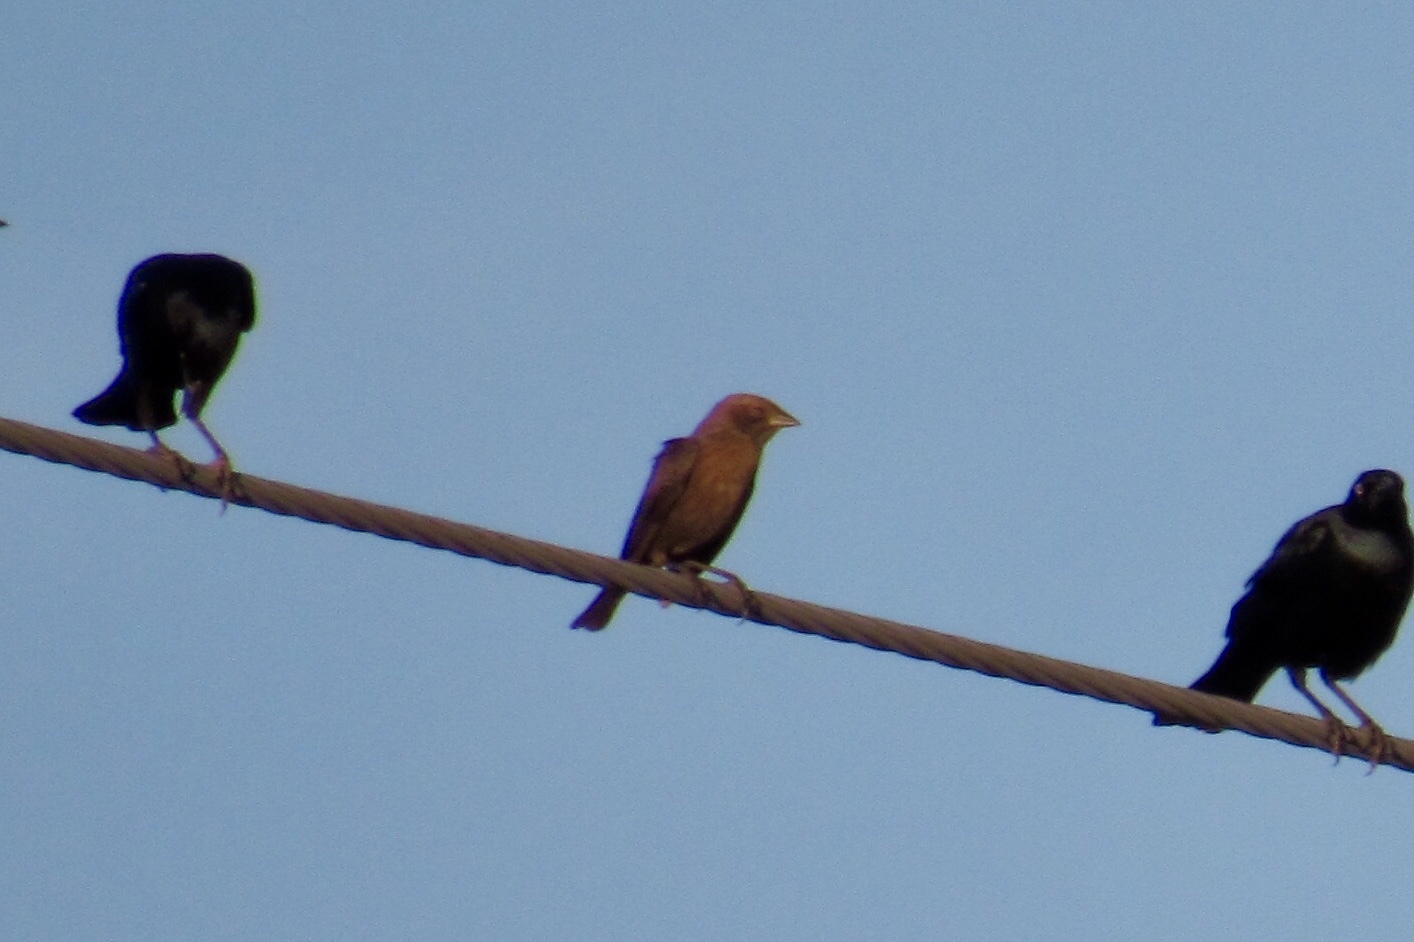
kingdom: Animalia
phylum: Chordata
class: Aves
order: Passeriformes
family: Icteridae
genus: Molothrus
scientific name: Molothrus ater
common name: Brown-headed cowbird
